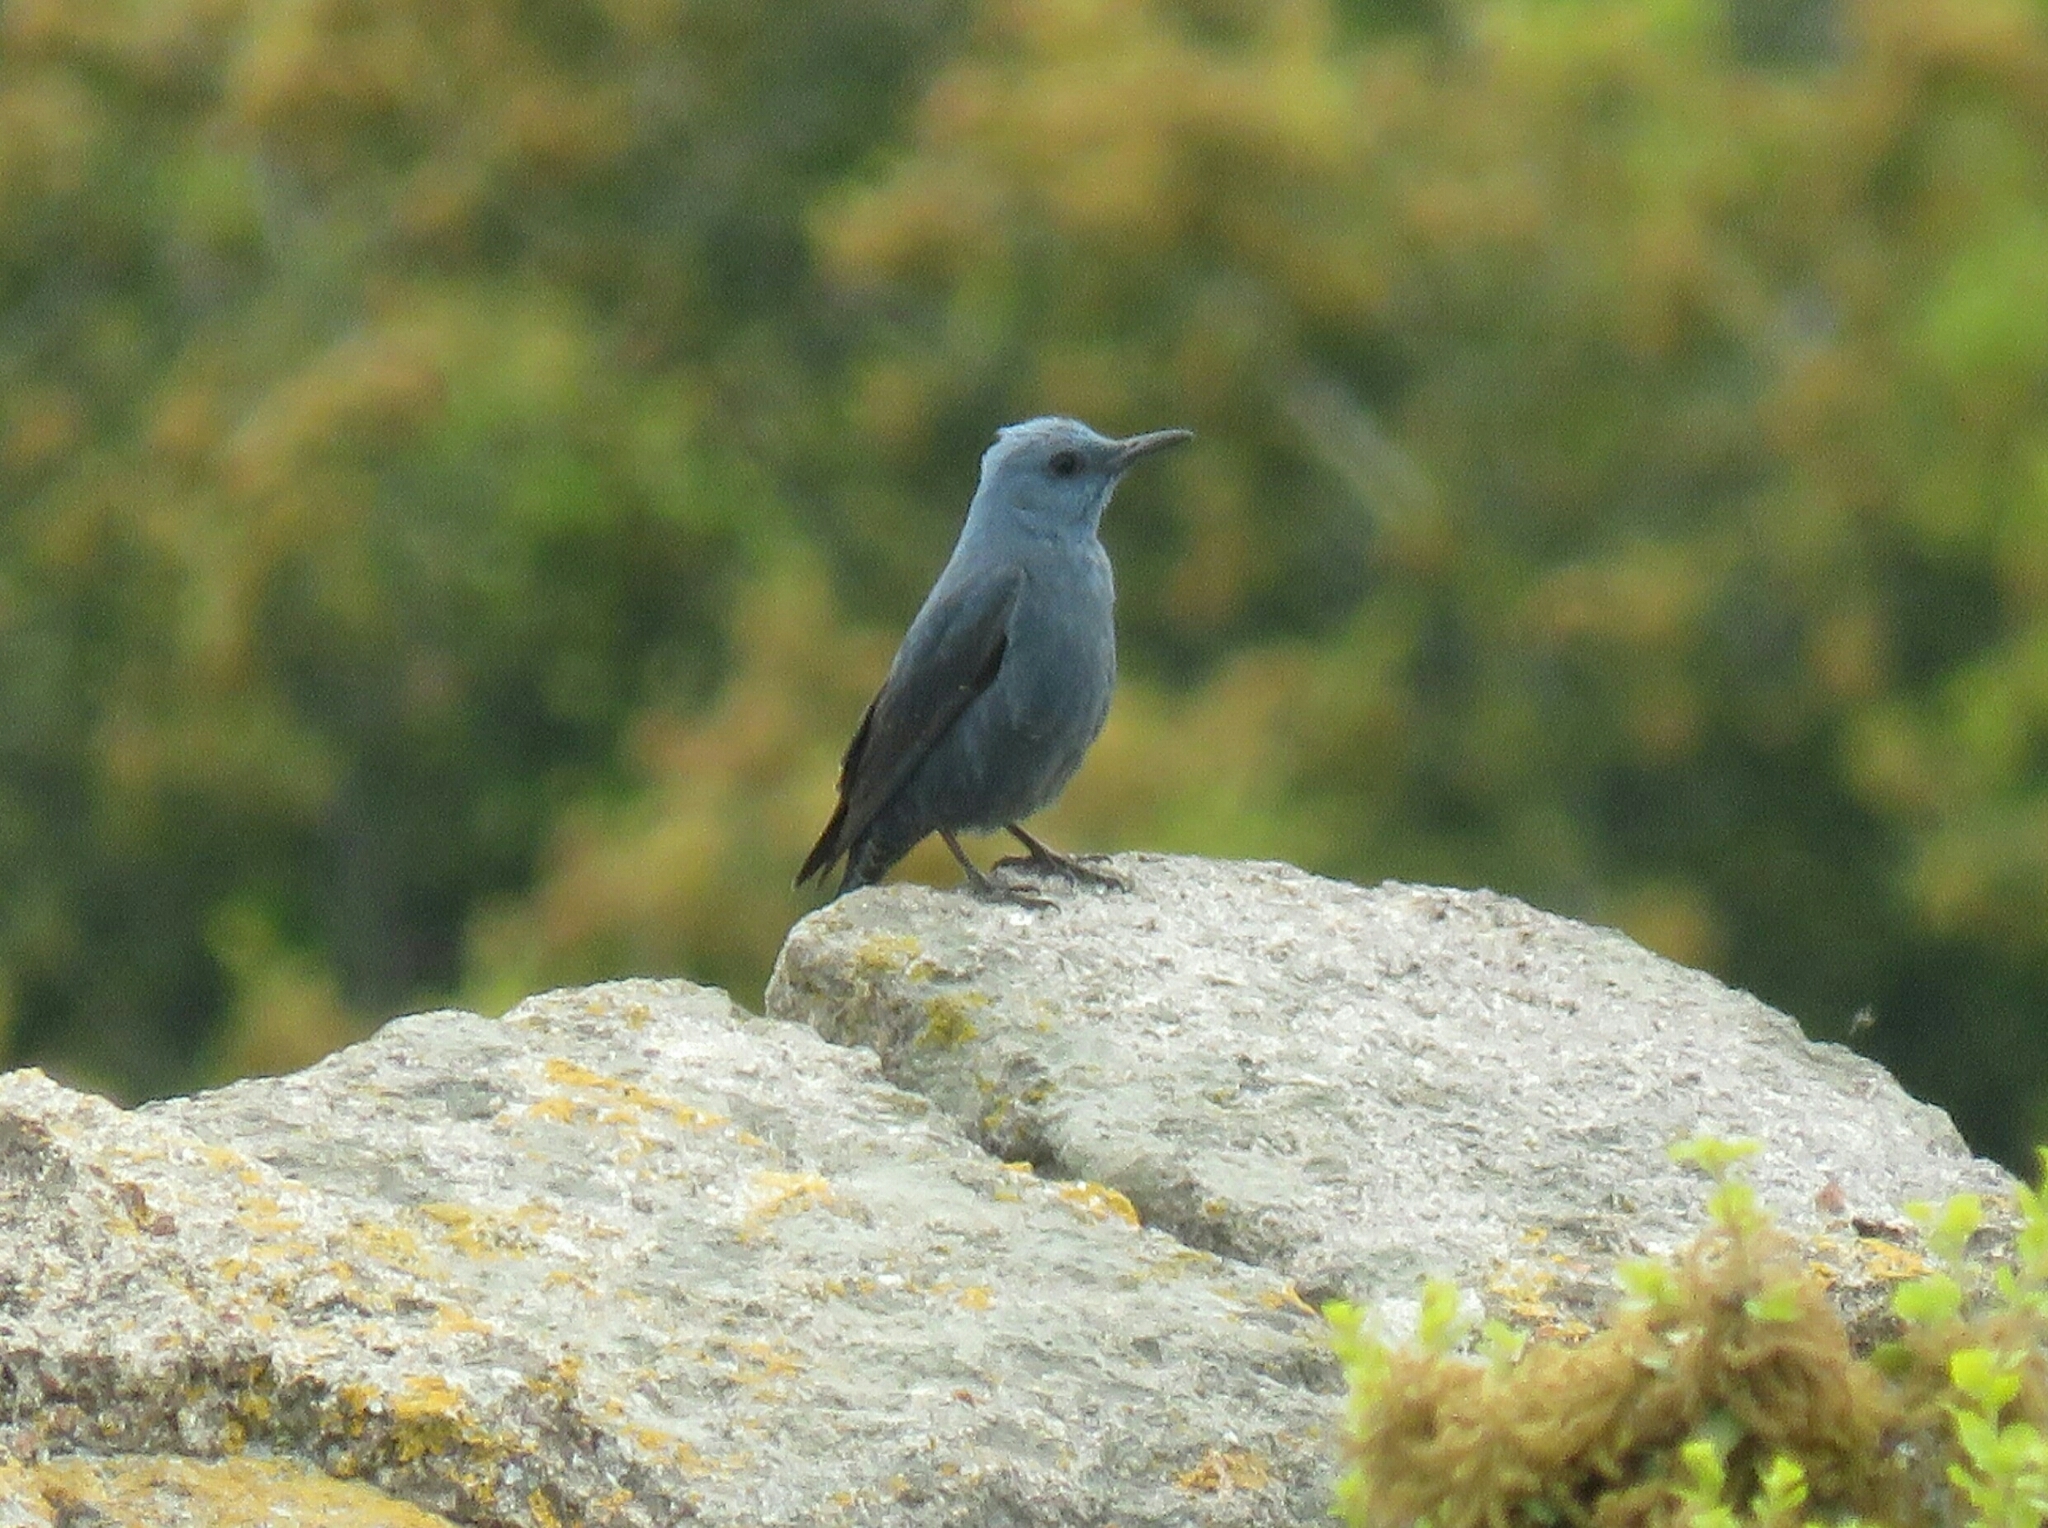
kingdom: Animalia
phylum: Chordata
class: Aves
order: Passeriformes
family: Muscicapidae
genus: Monticola
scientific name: Monticola solitarius
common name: Blue rock thrush
